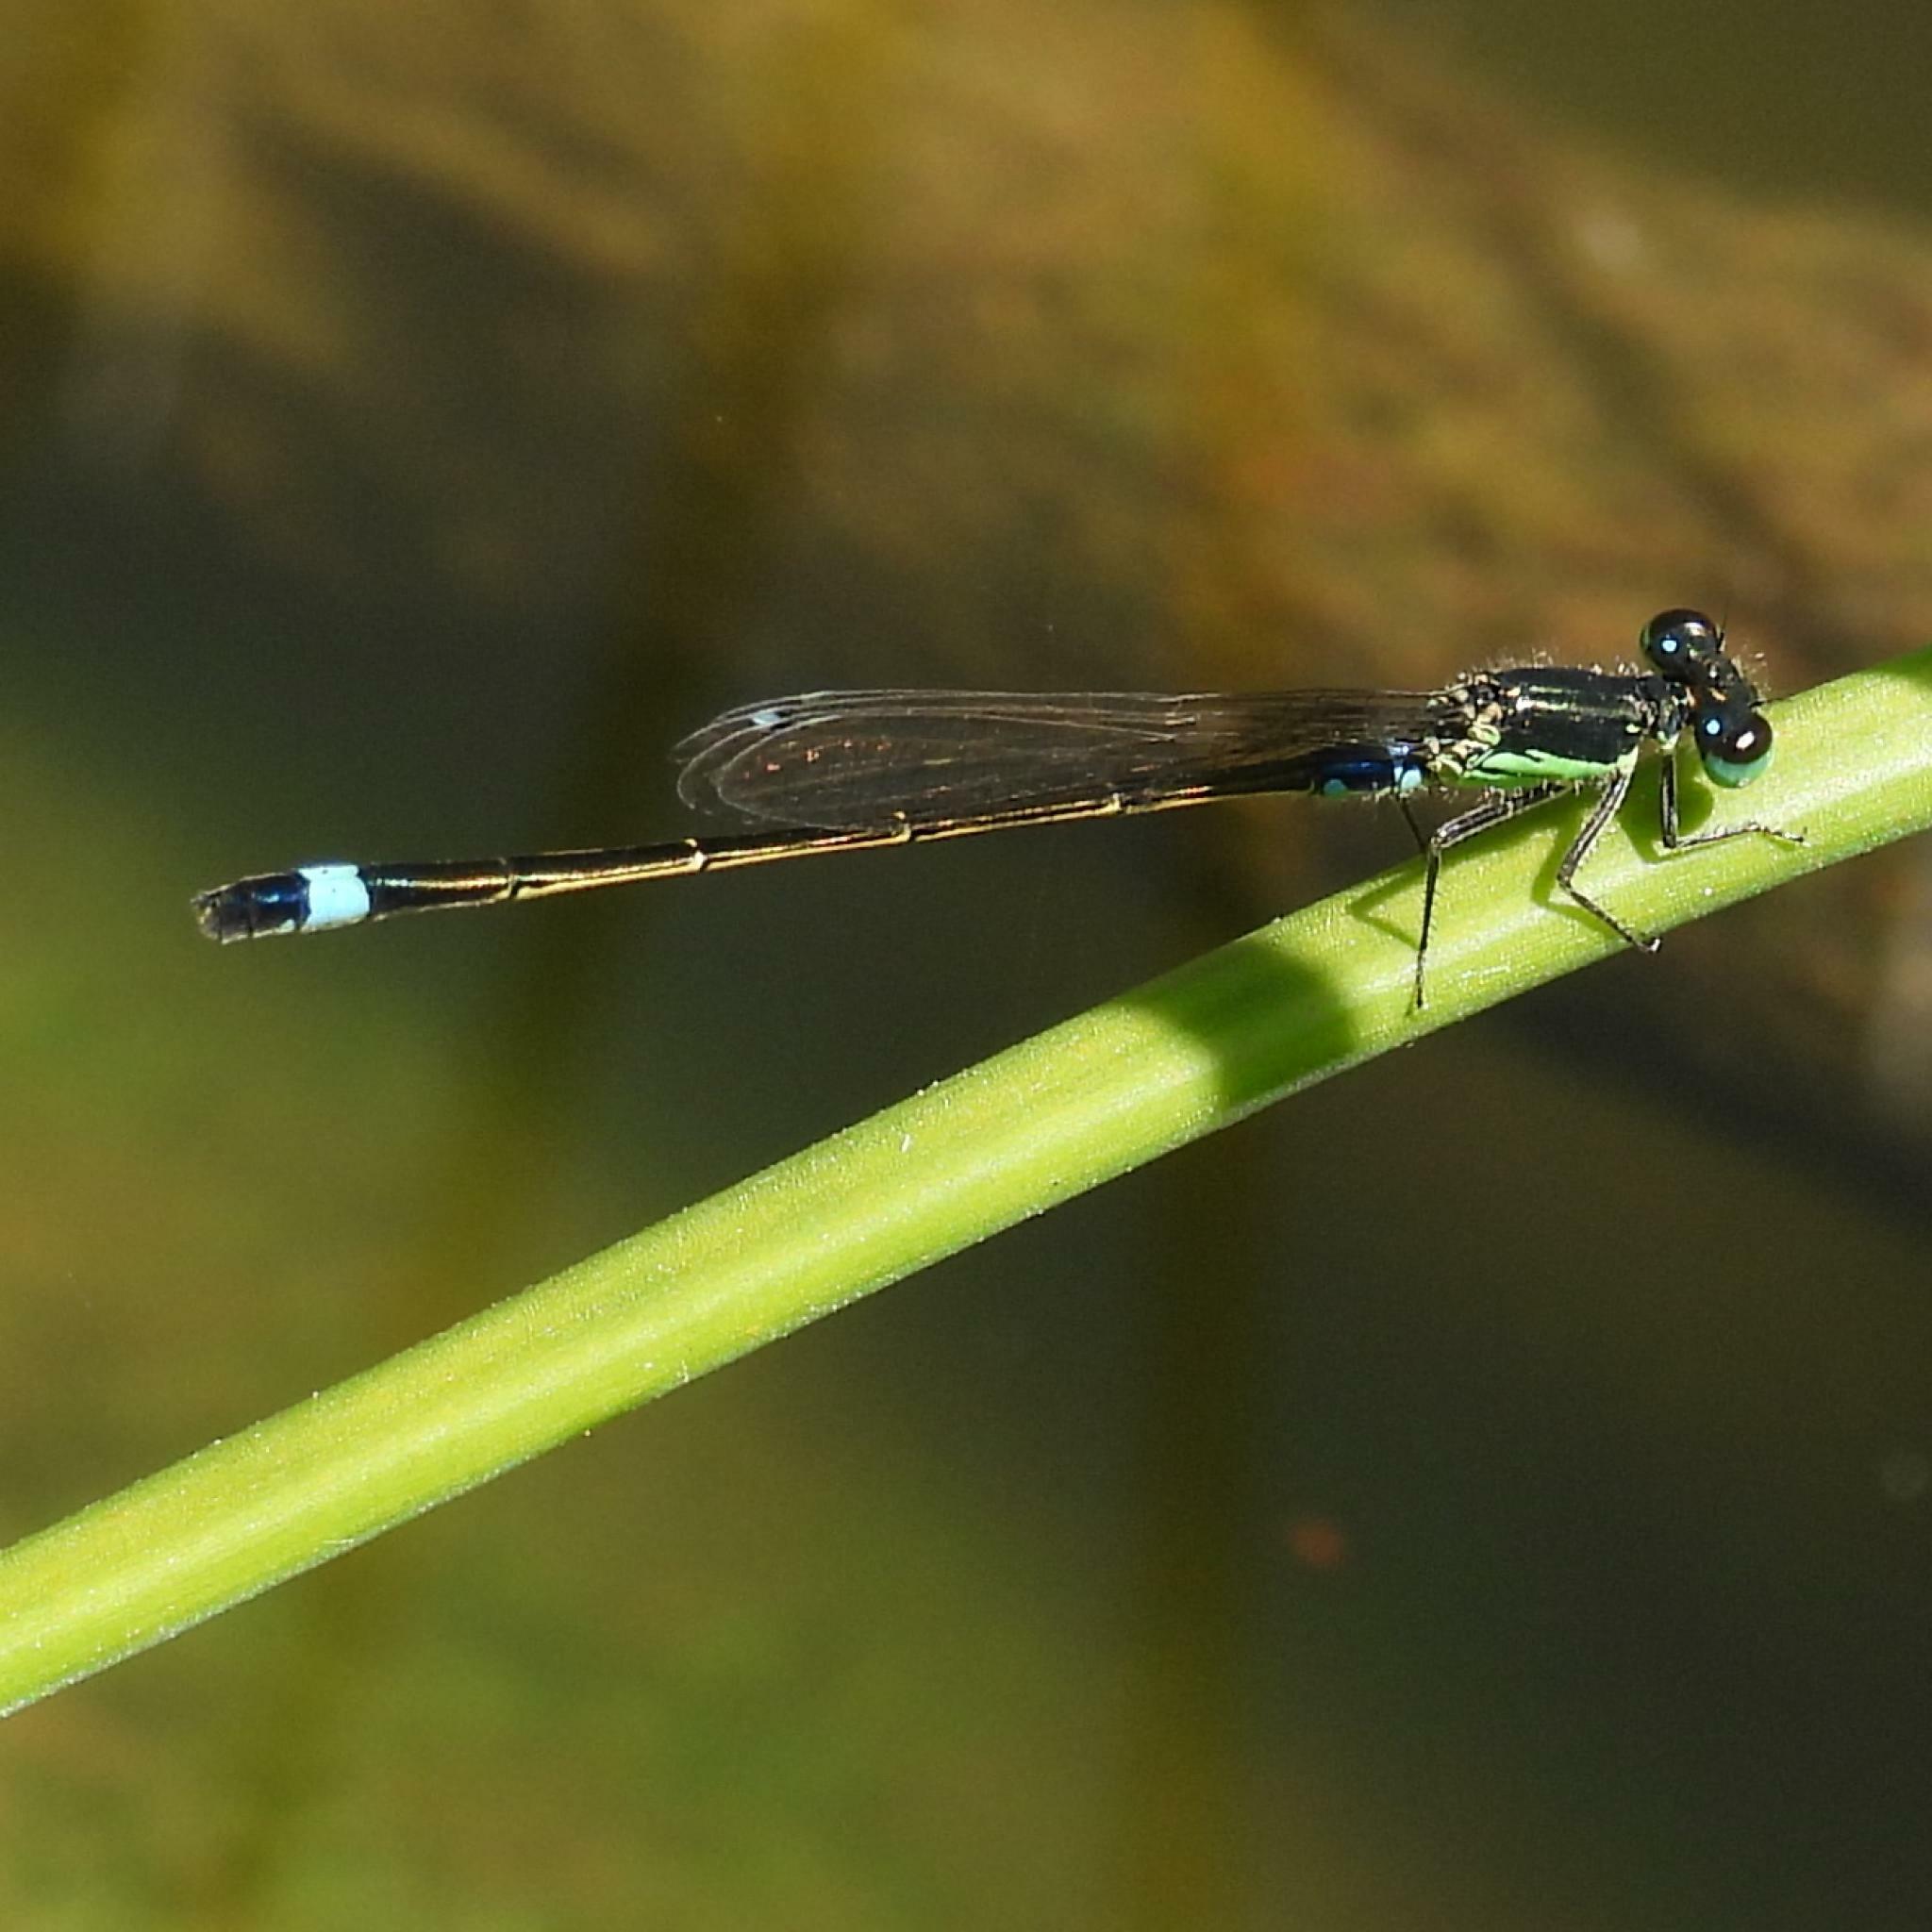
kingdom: Animalia
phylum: Arthropoda
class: Insecta
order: Odonata
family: Coenagrionidae
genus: Ischnura
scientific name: Ischnura senegalensis
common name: Tropical bluetail
